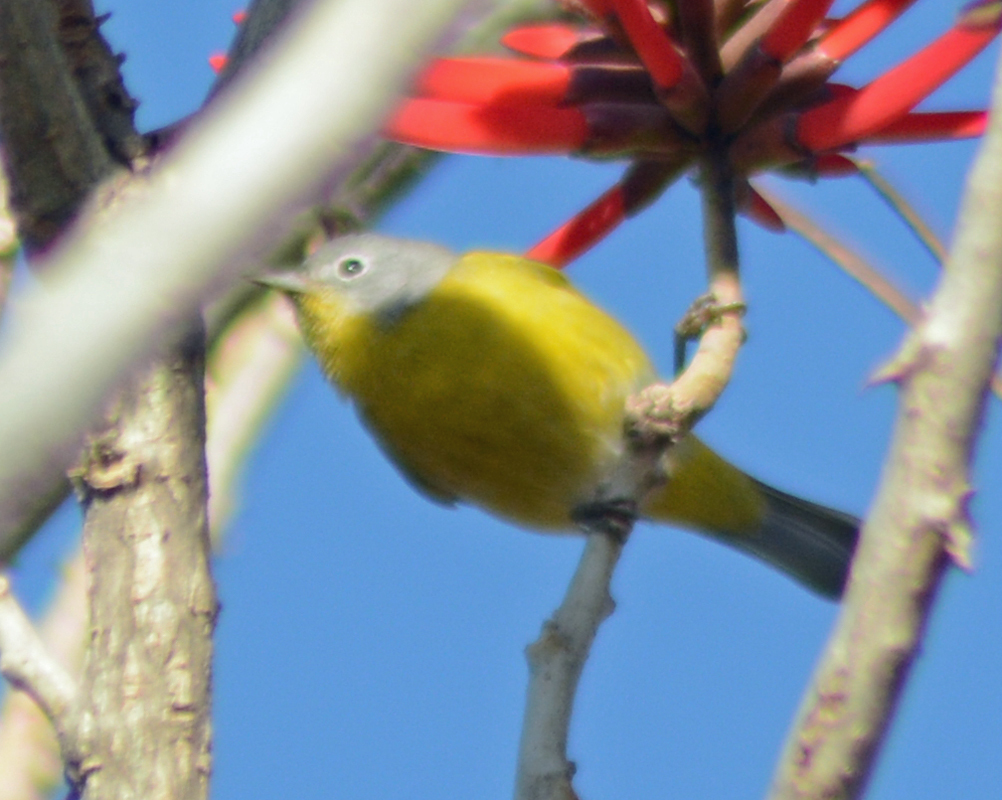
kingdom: Animalia
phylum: Chordata
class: Aves
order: Passeriformes
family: Parulidae
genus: Leiothlypis
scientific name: Leiothlypis ruficapilla
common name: Nashville warbler
